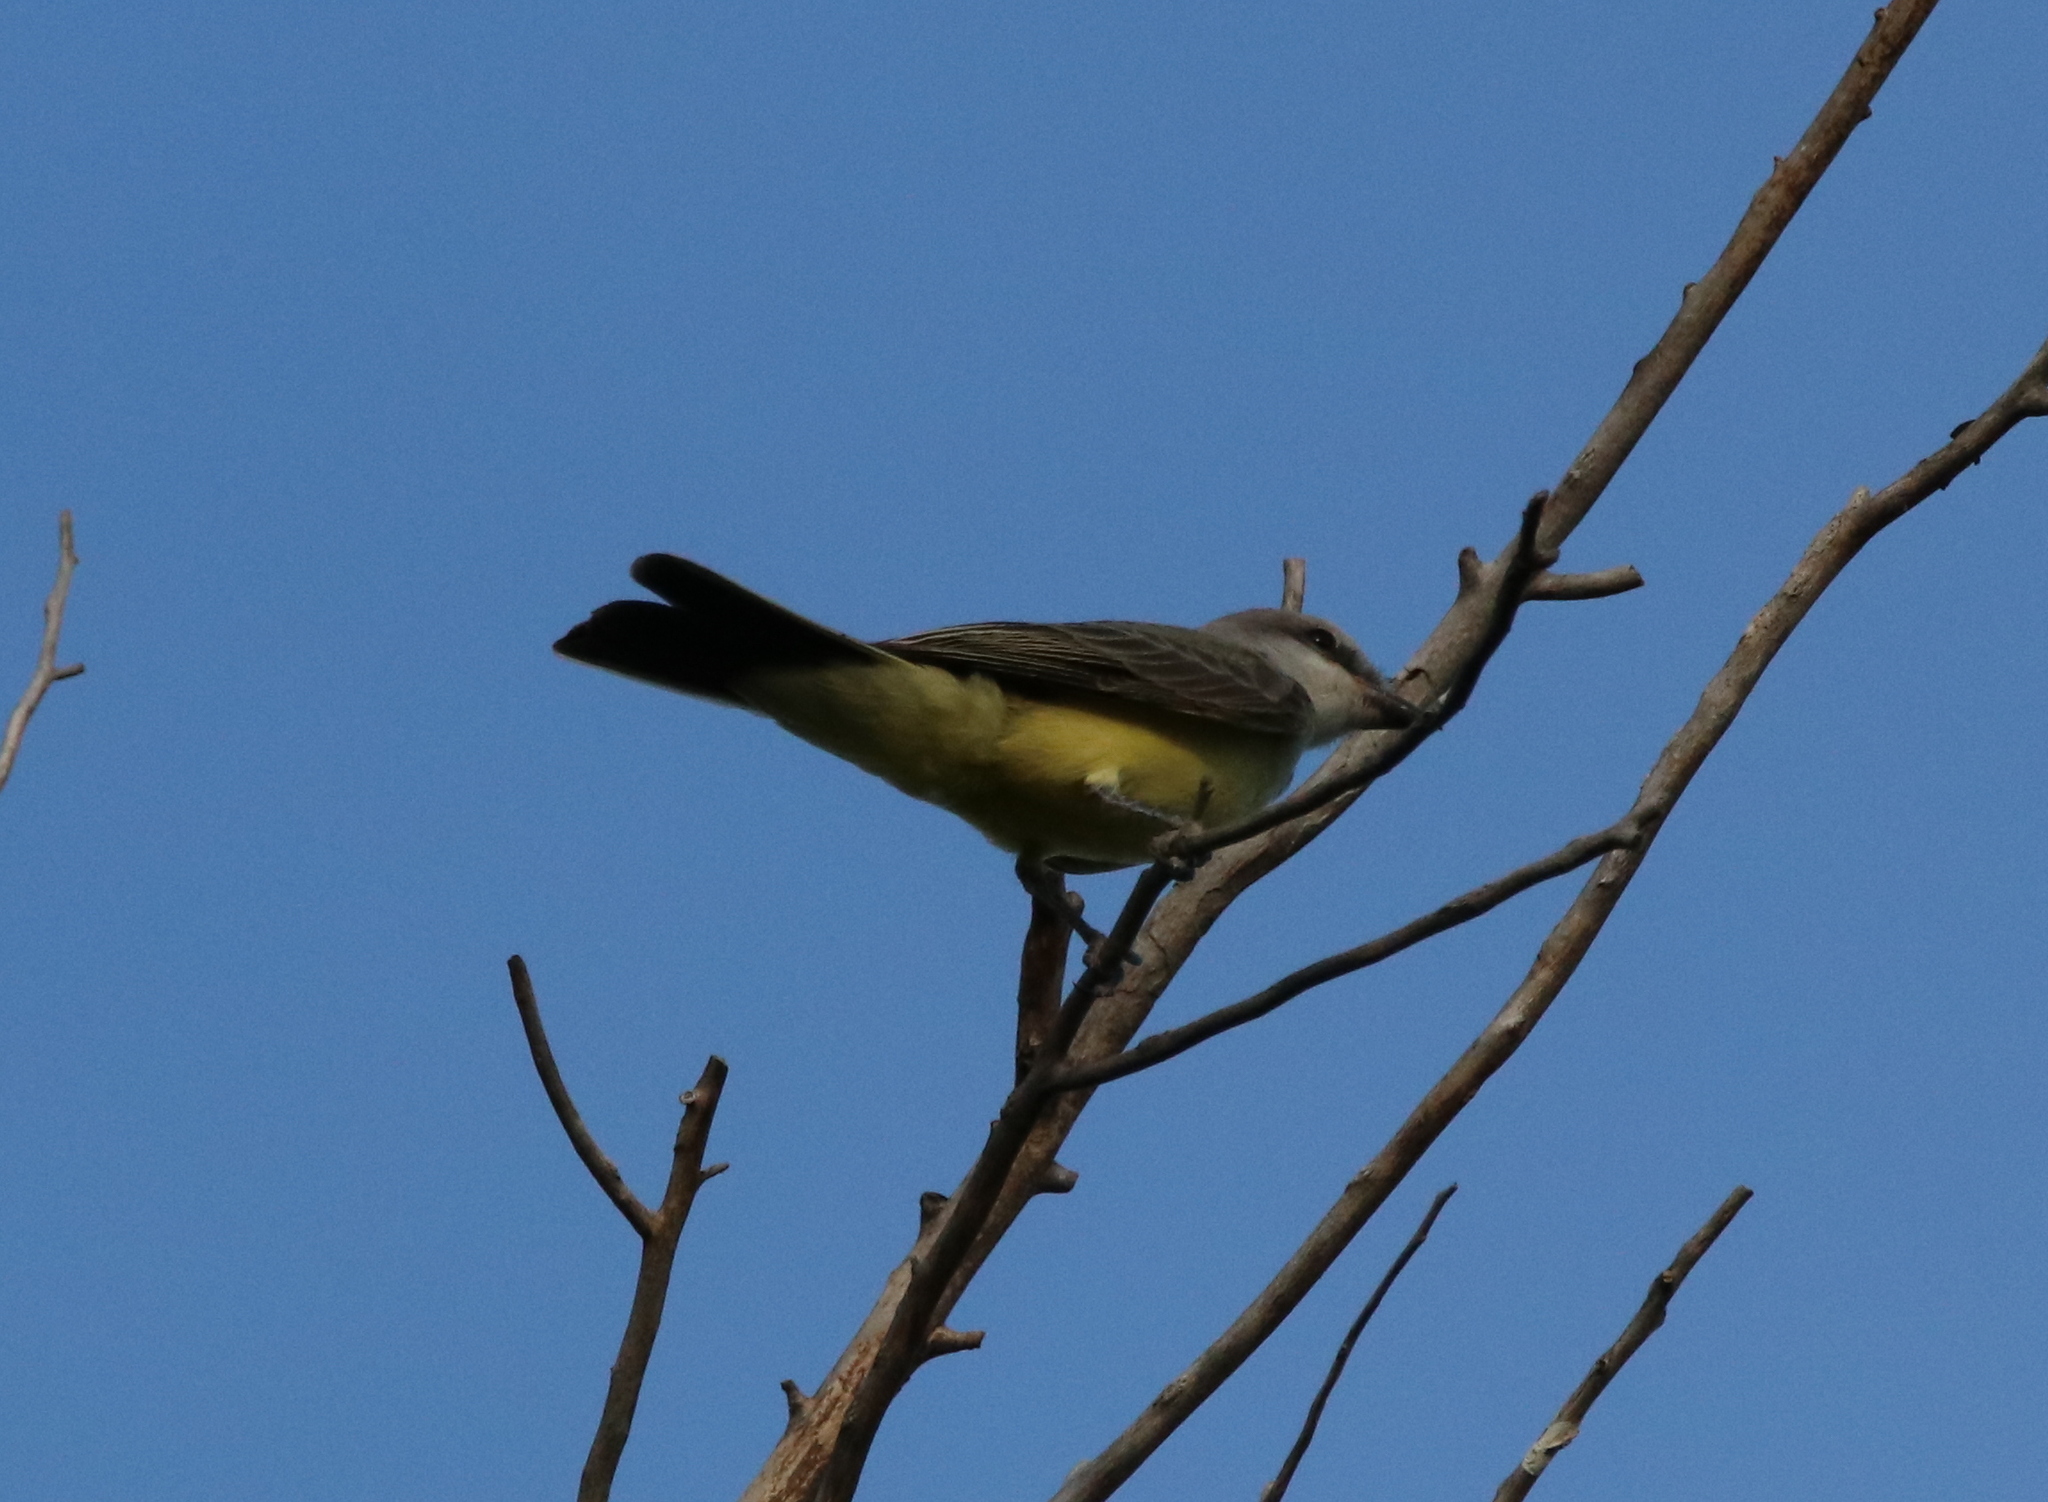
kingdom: Animalia
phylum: Chordata
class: Aves
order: Passeriformes
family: Tyrannidae
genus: Tyrannus
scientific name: Tyrannus verticalis
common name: Western kingbird
